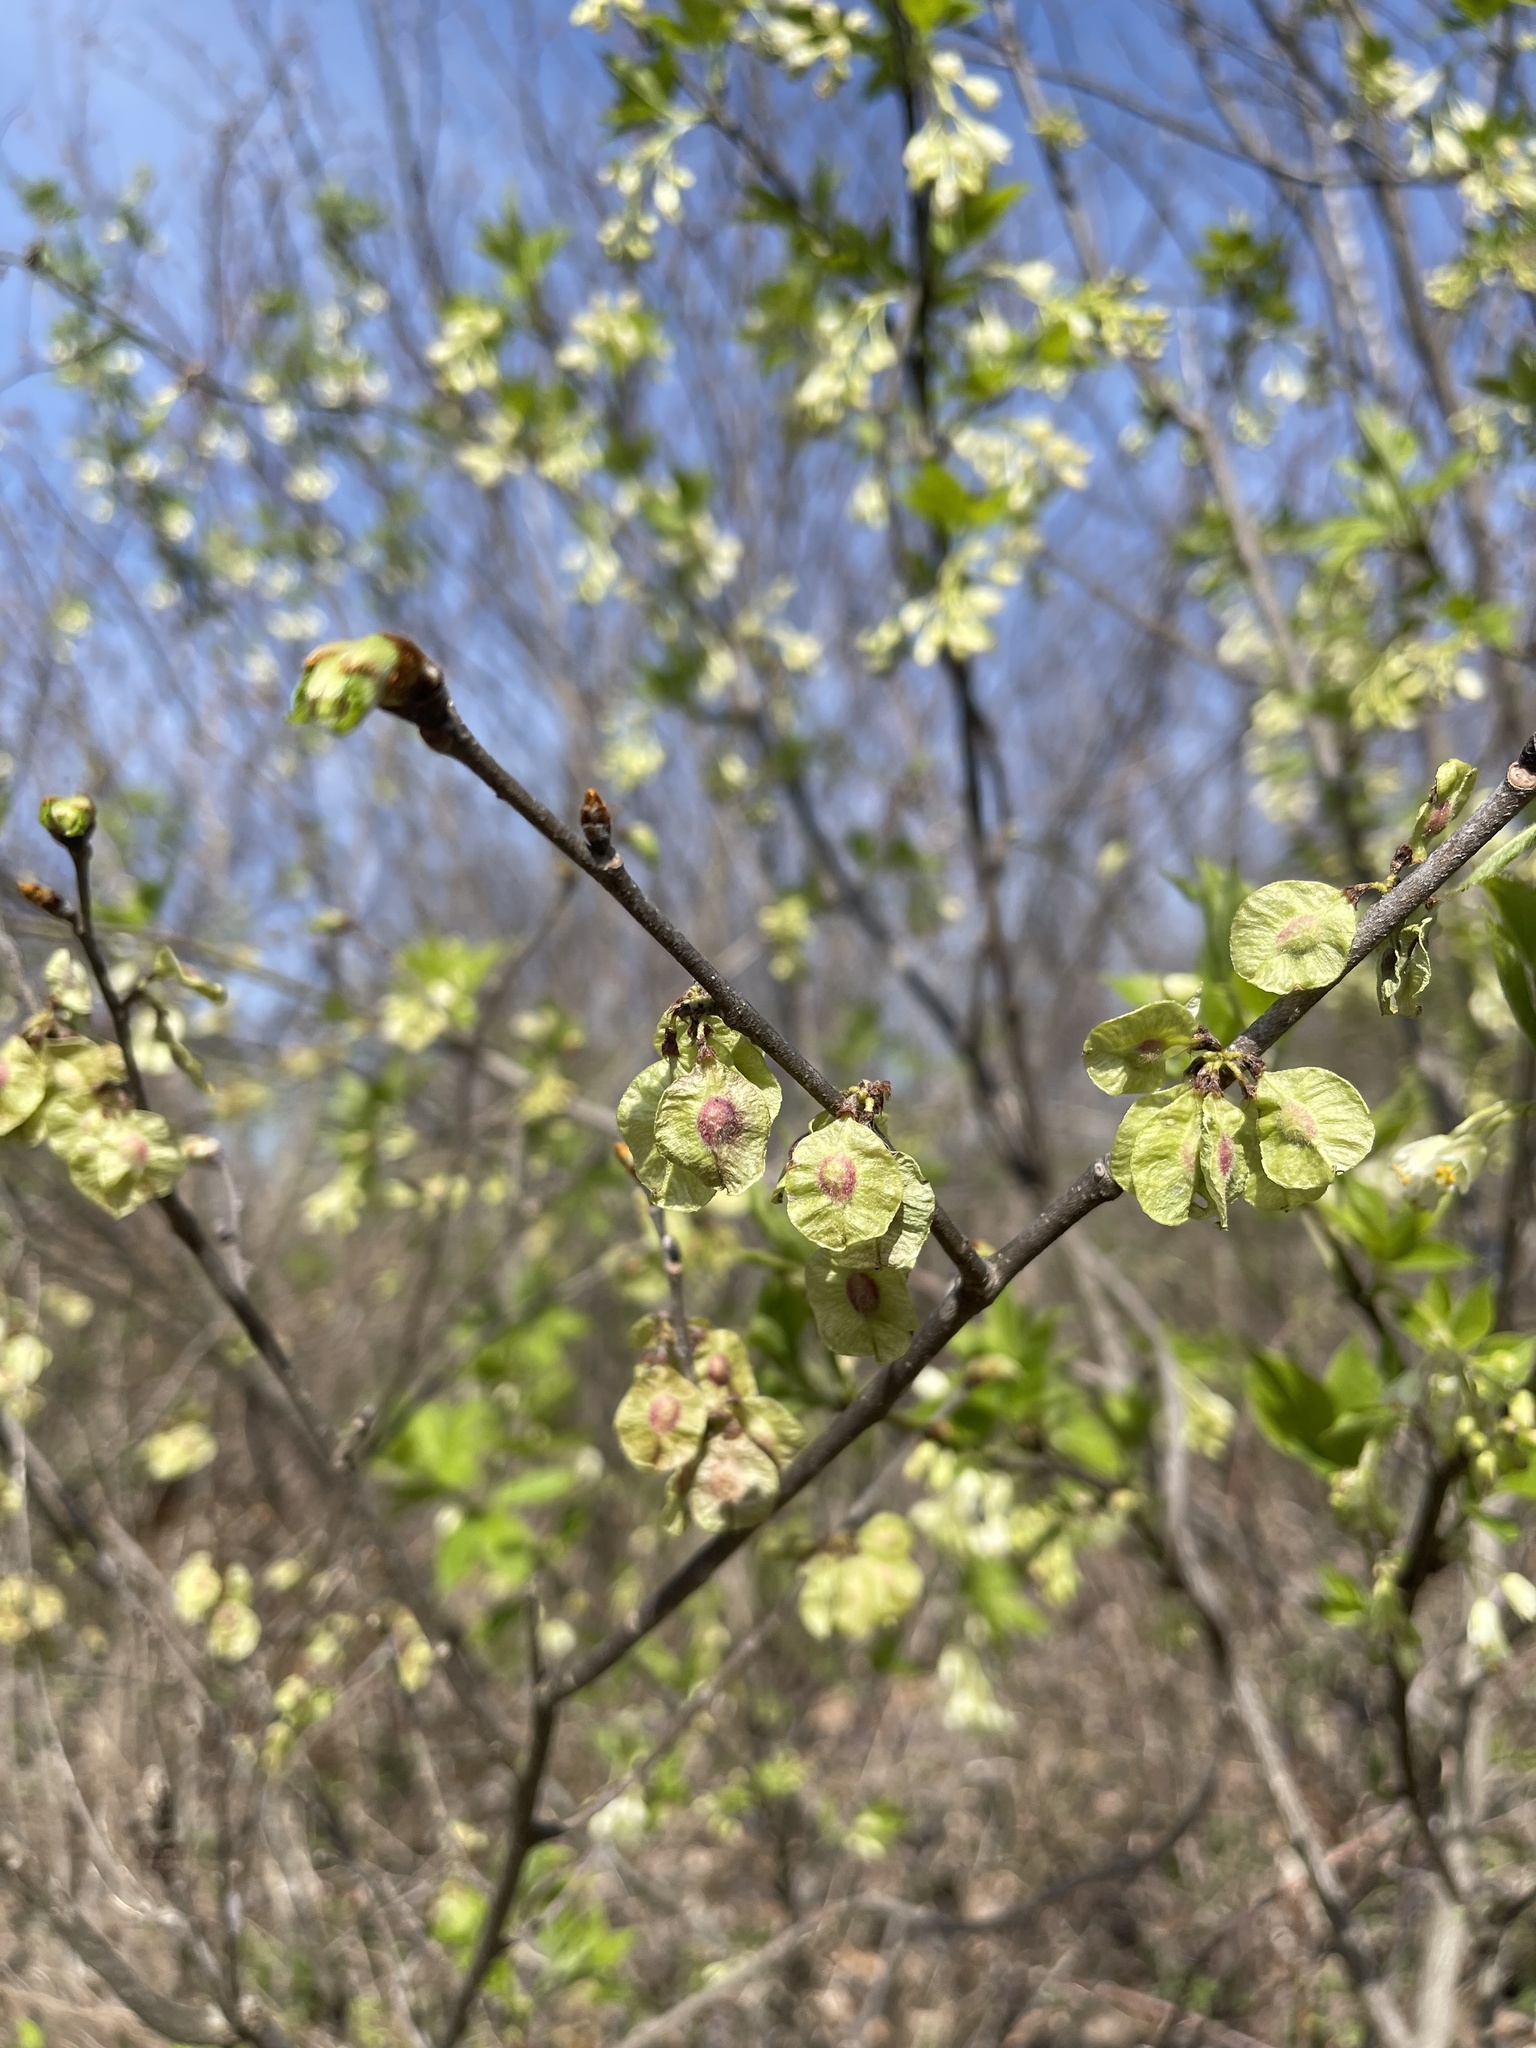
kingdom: Plantae
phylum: Tracheophyta
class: Magnoliopsida
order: Rosales
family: Ulmaceae
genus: Ulmus
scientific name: Ulmus rubra
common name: Slippery elm
